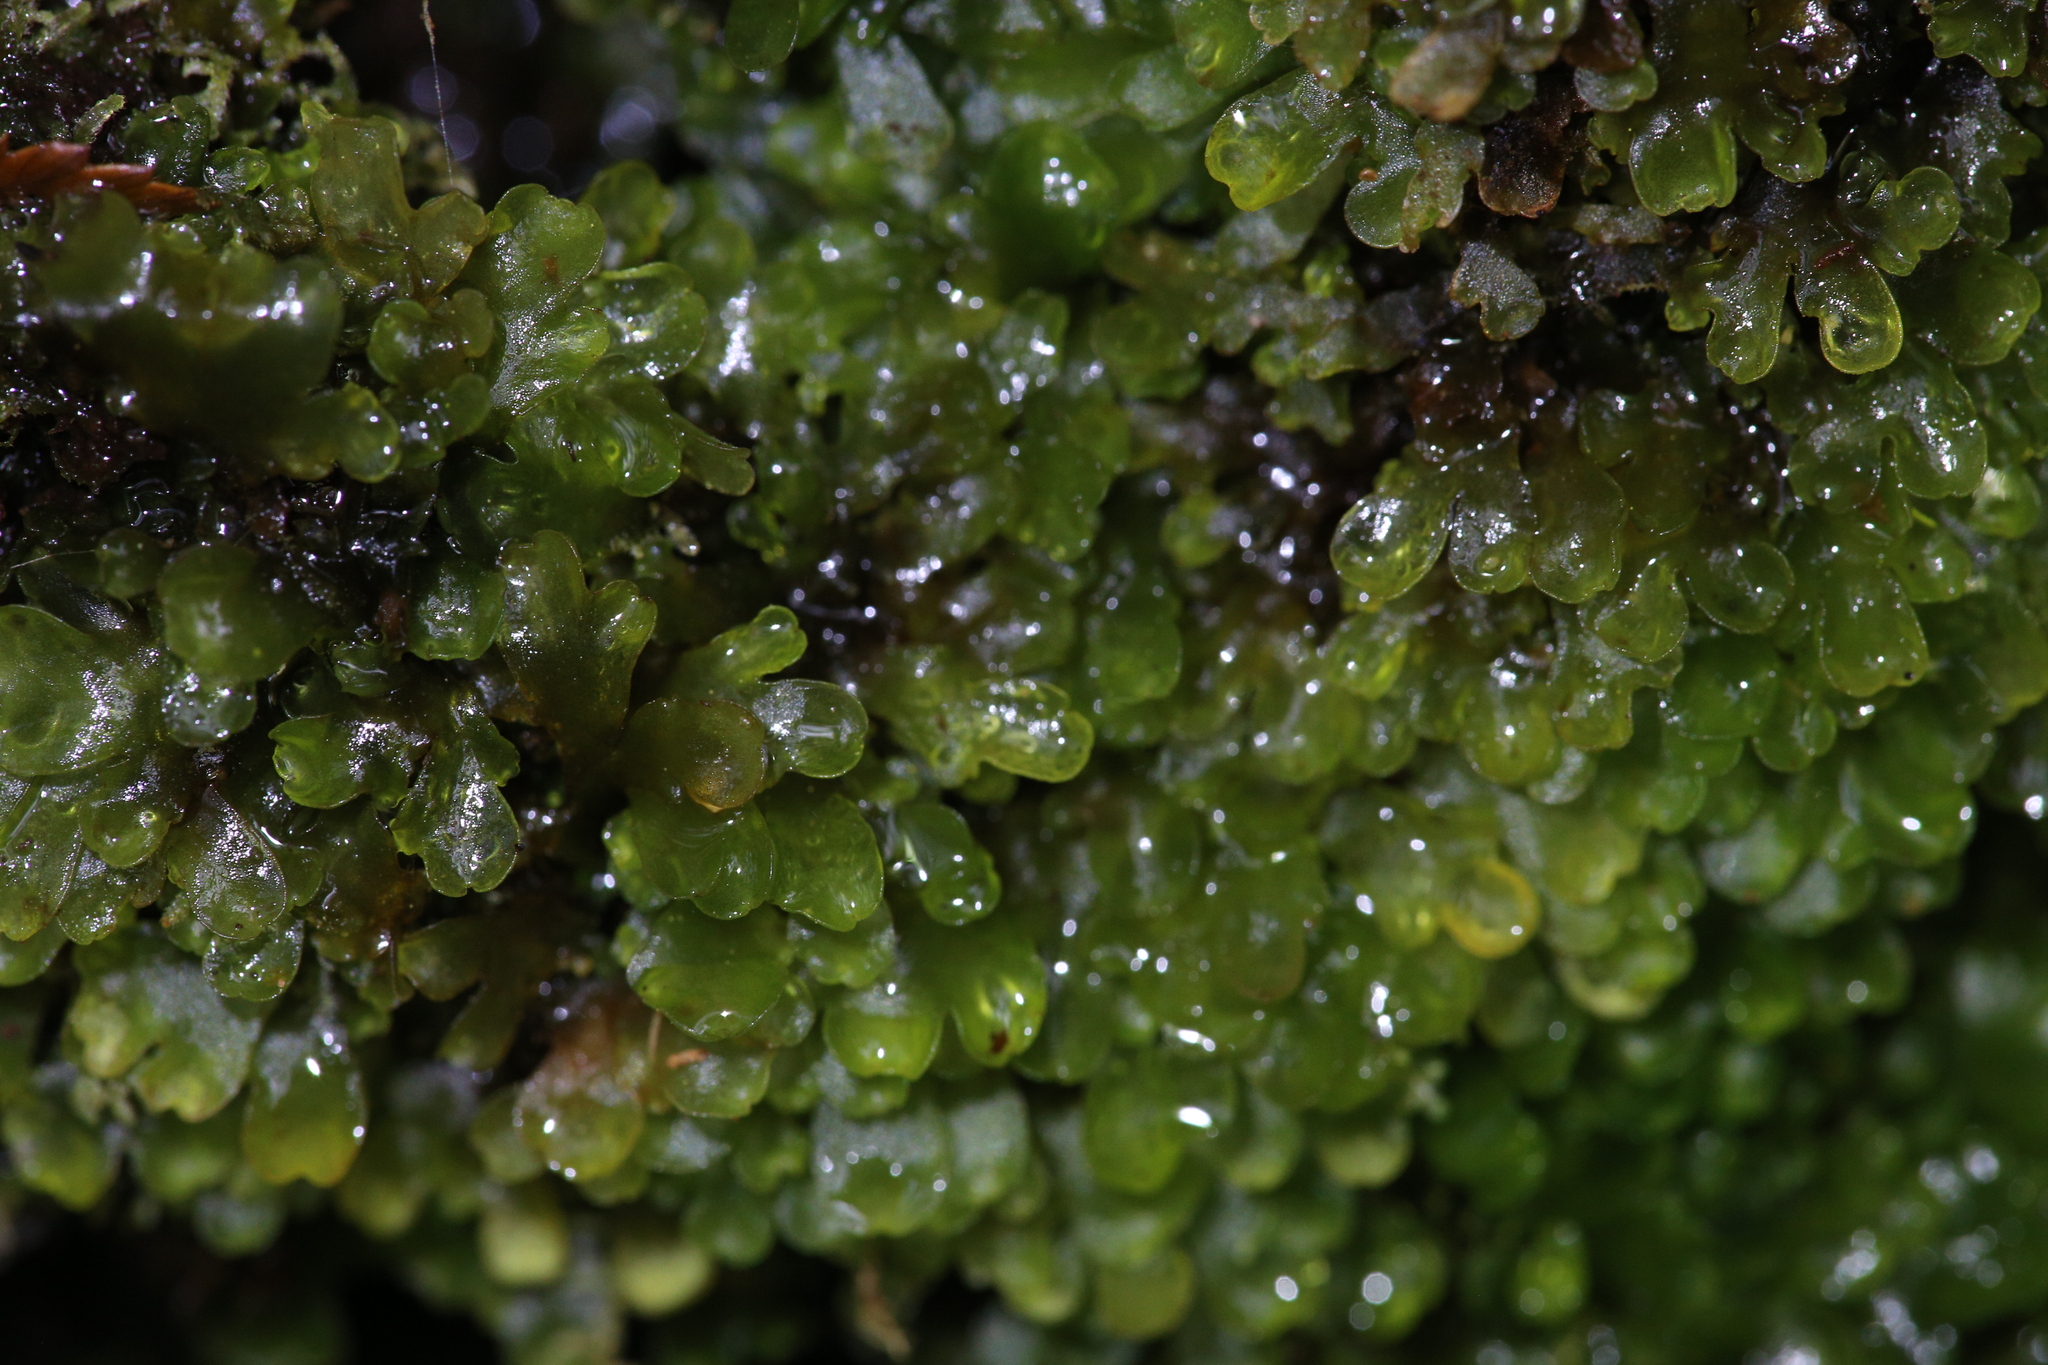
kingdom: Plantae
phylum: Marchantiophyta
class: Jungermanniopsida
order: Metzgeriales
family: Aneuraceae
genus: Riccardia
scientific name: Riccardia cochleata
